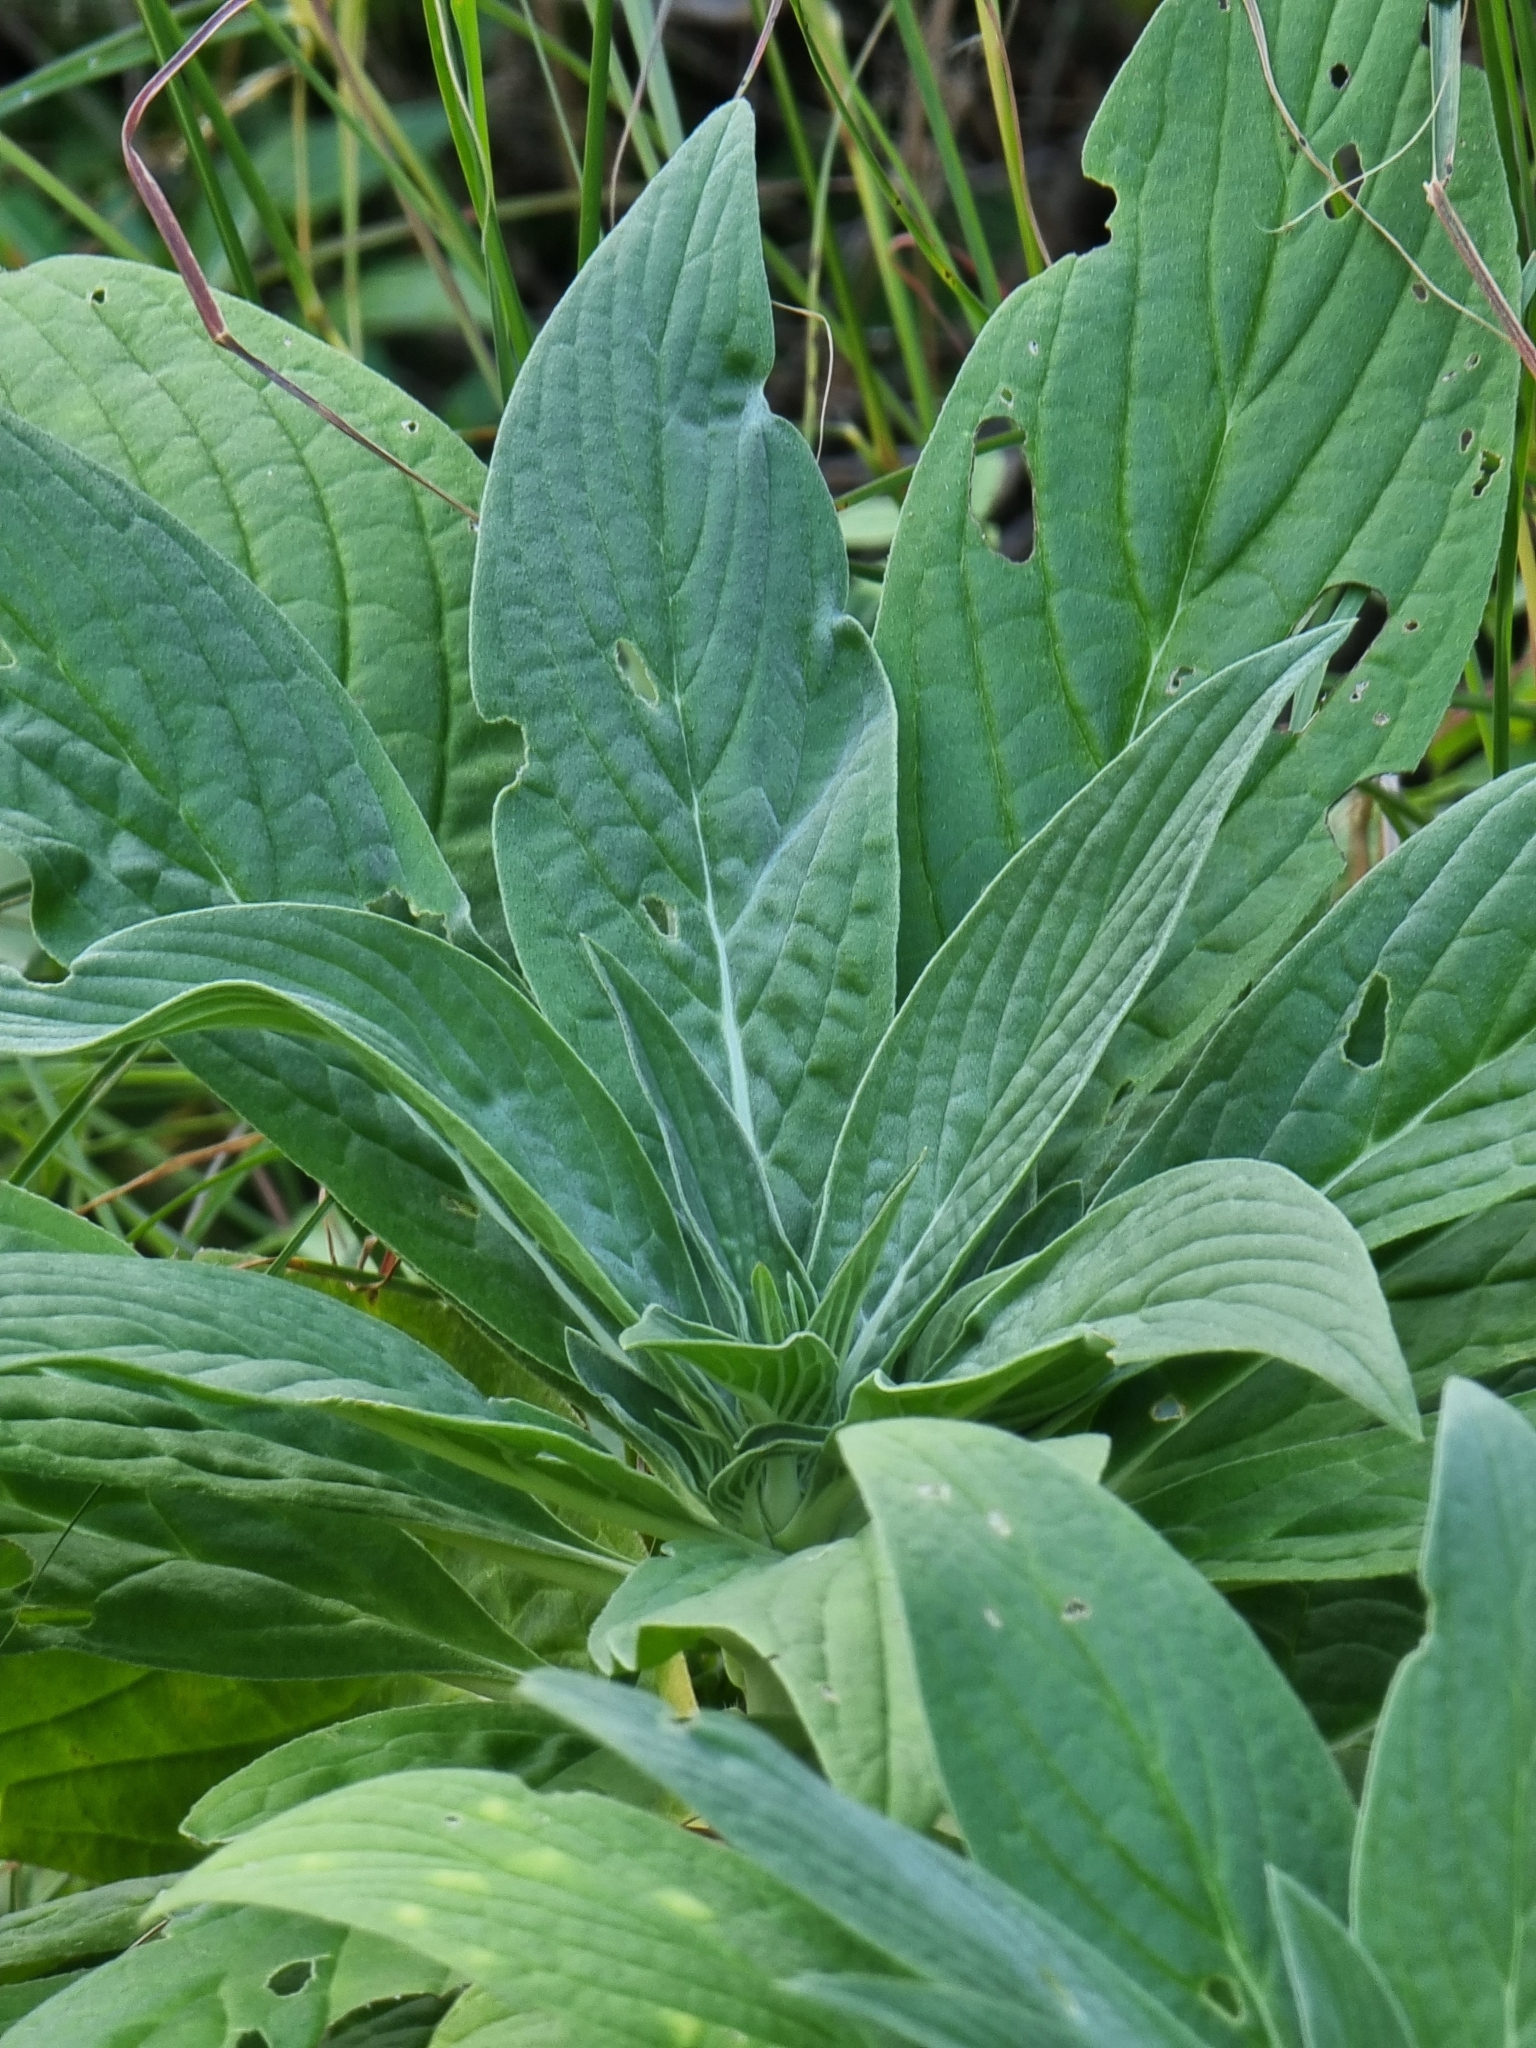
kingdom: Plantae
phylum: Tracheophyta
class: Magnoliopsida
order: Boraginales
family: Boraginaceae
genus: Echium
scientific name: Echium nervosum
